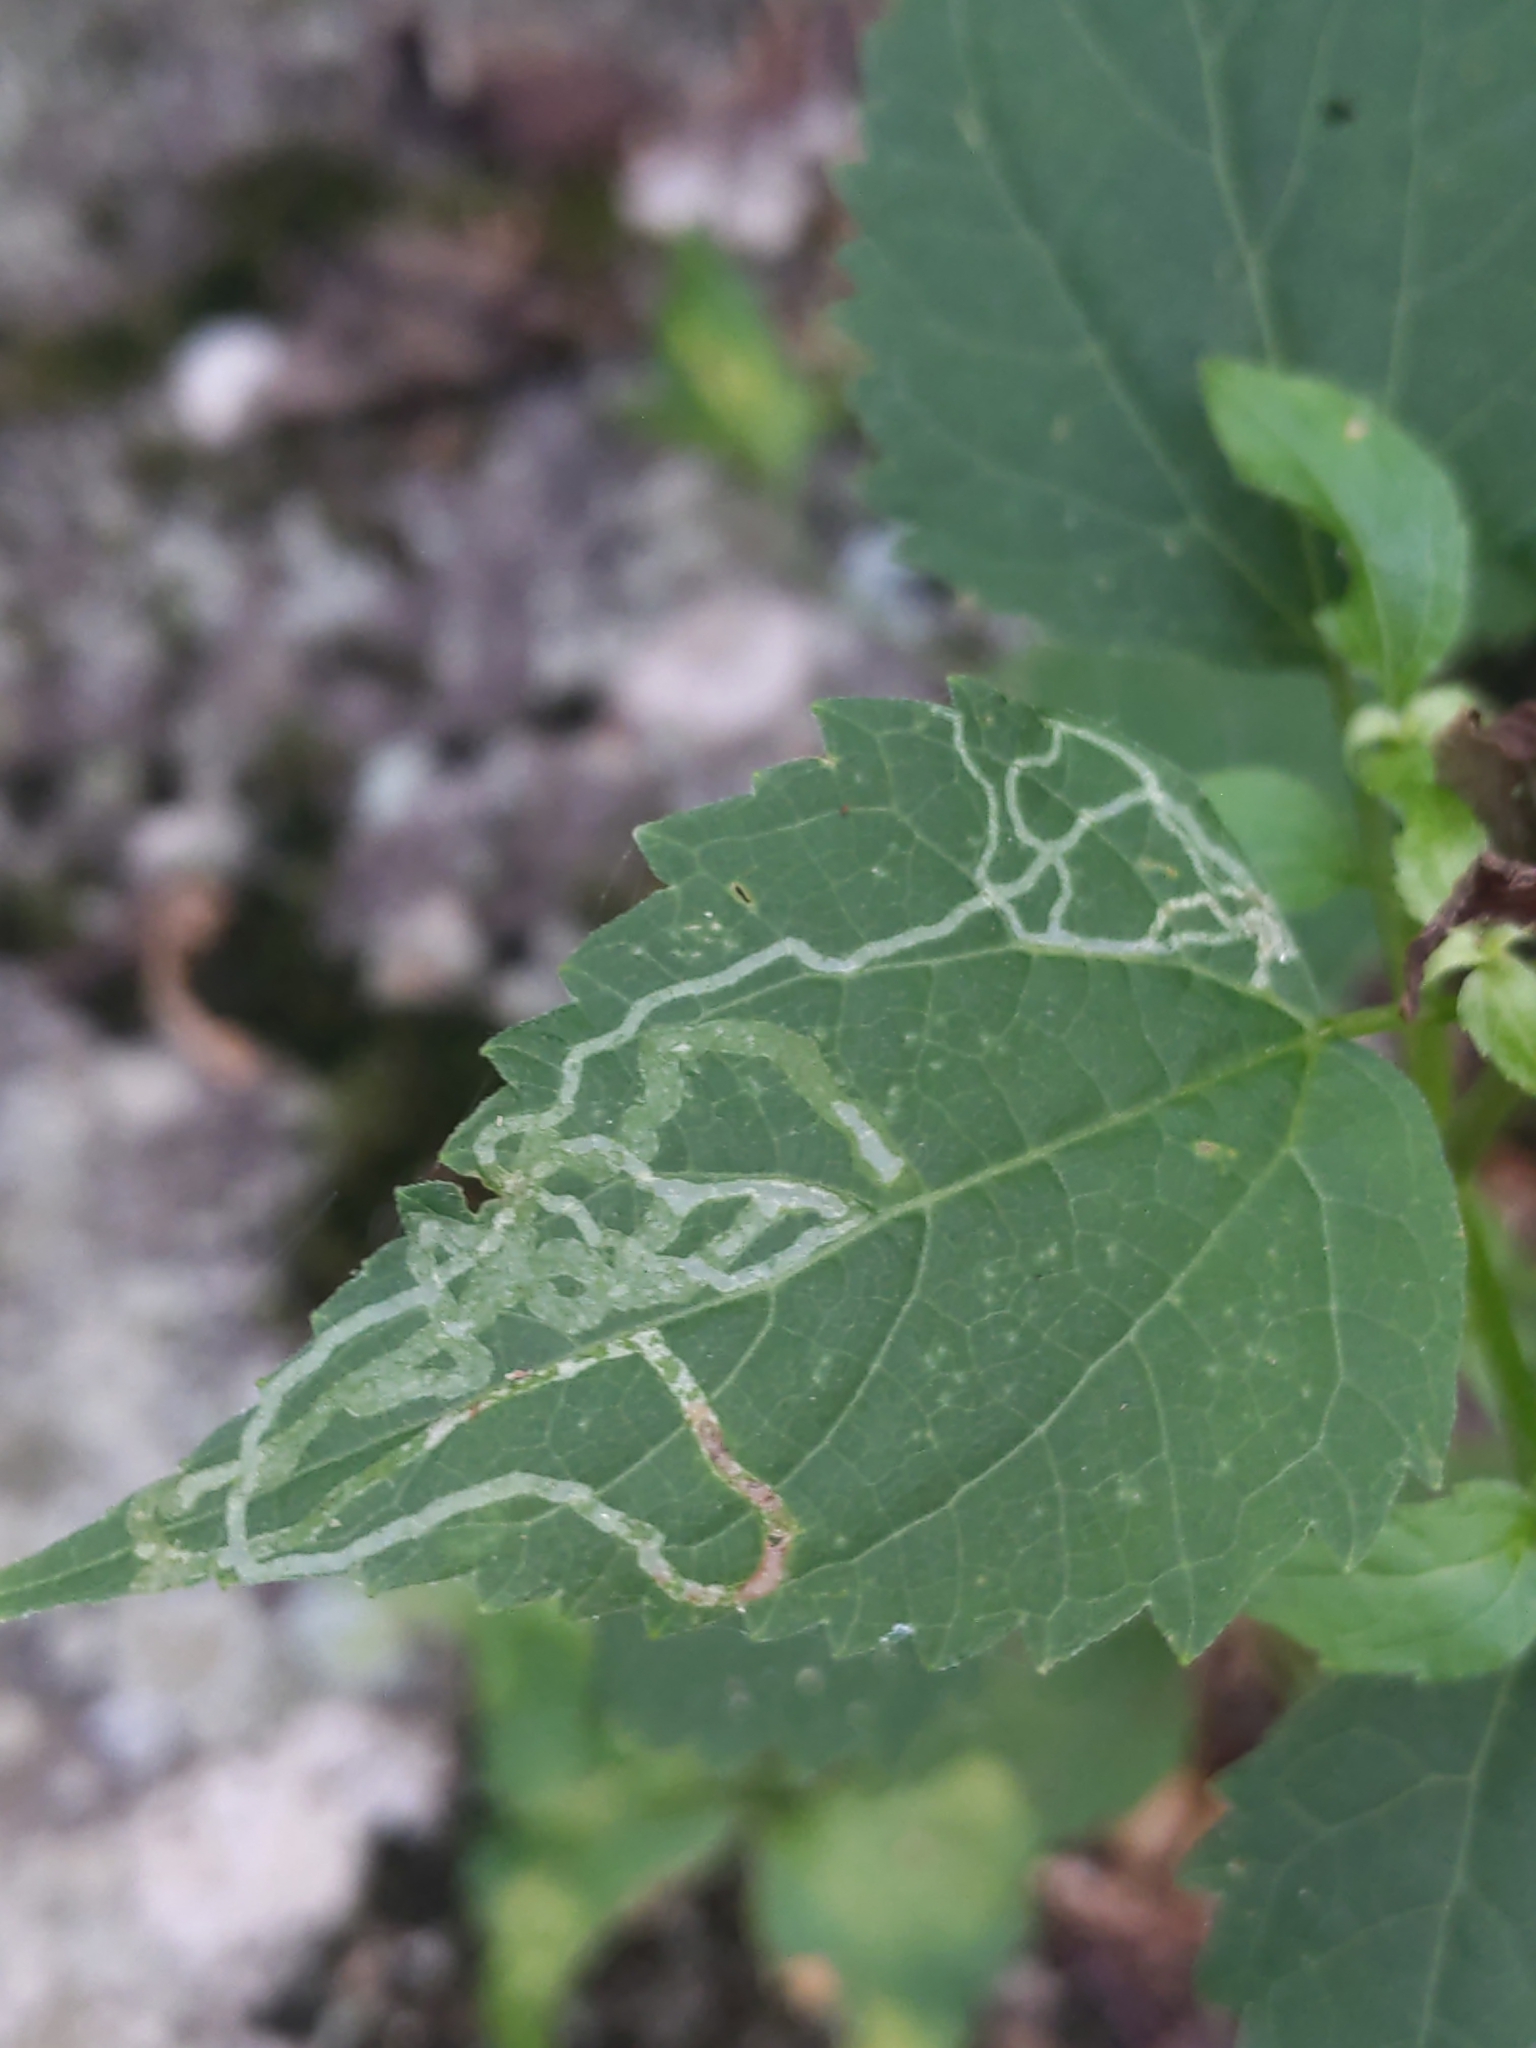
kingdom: Animalia
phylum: Arthropoda
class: Insecta
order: Diptera
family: Agromyzidae
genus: Liriomyza
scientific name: Liriomyza
